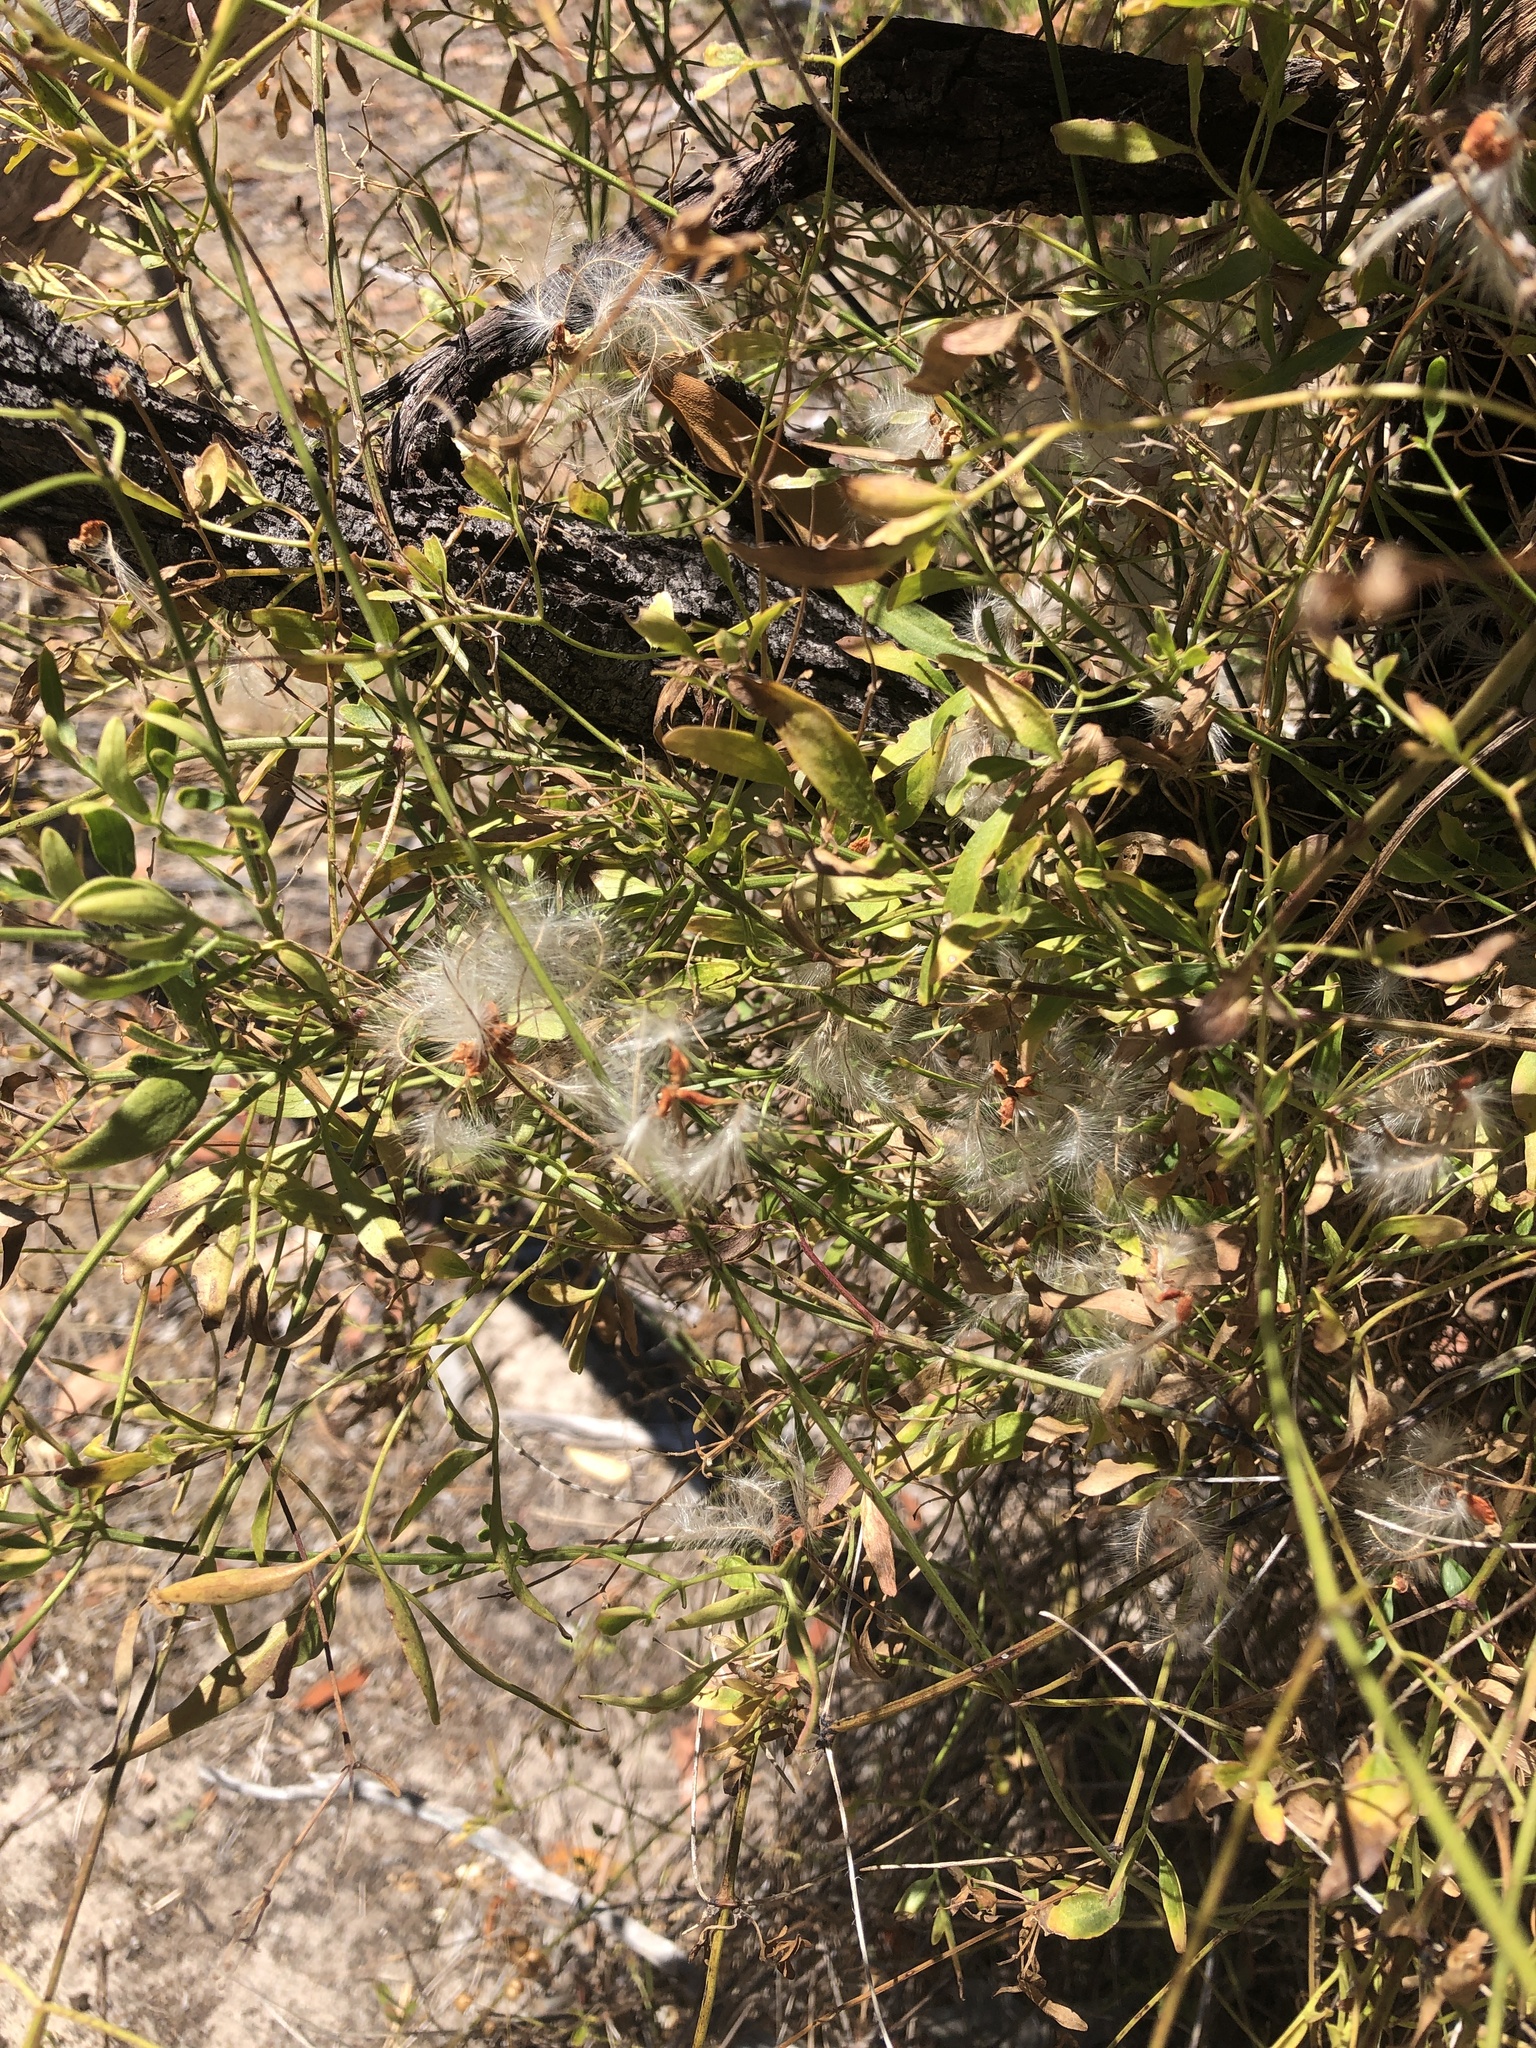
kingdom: Plantae
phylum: Tracheophyta
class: Magnoliopsida
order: Ranunculales
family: Ranunculaceae
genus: Clematis
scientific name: Clematis microphylla
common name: Headachevine
